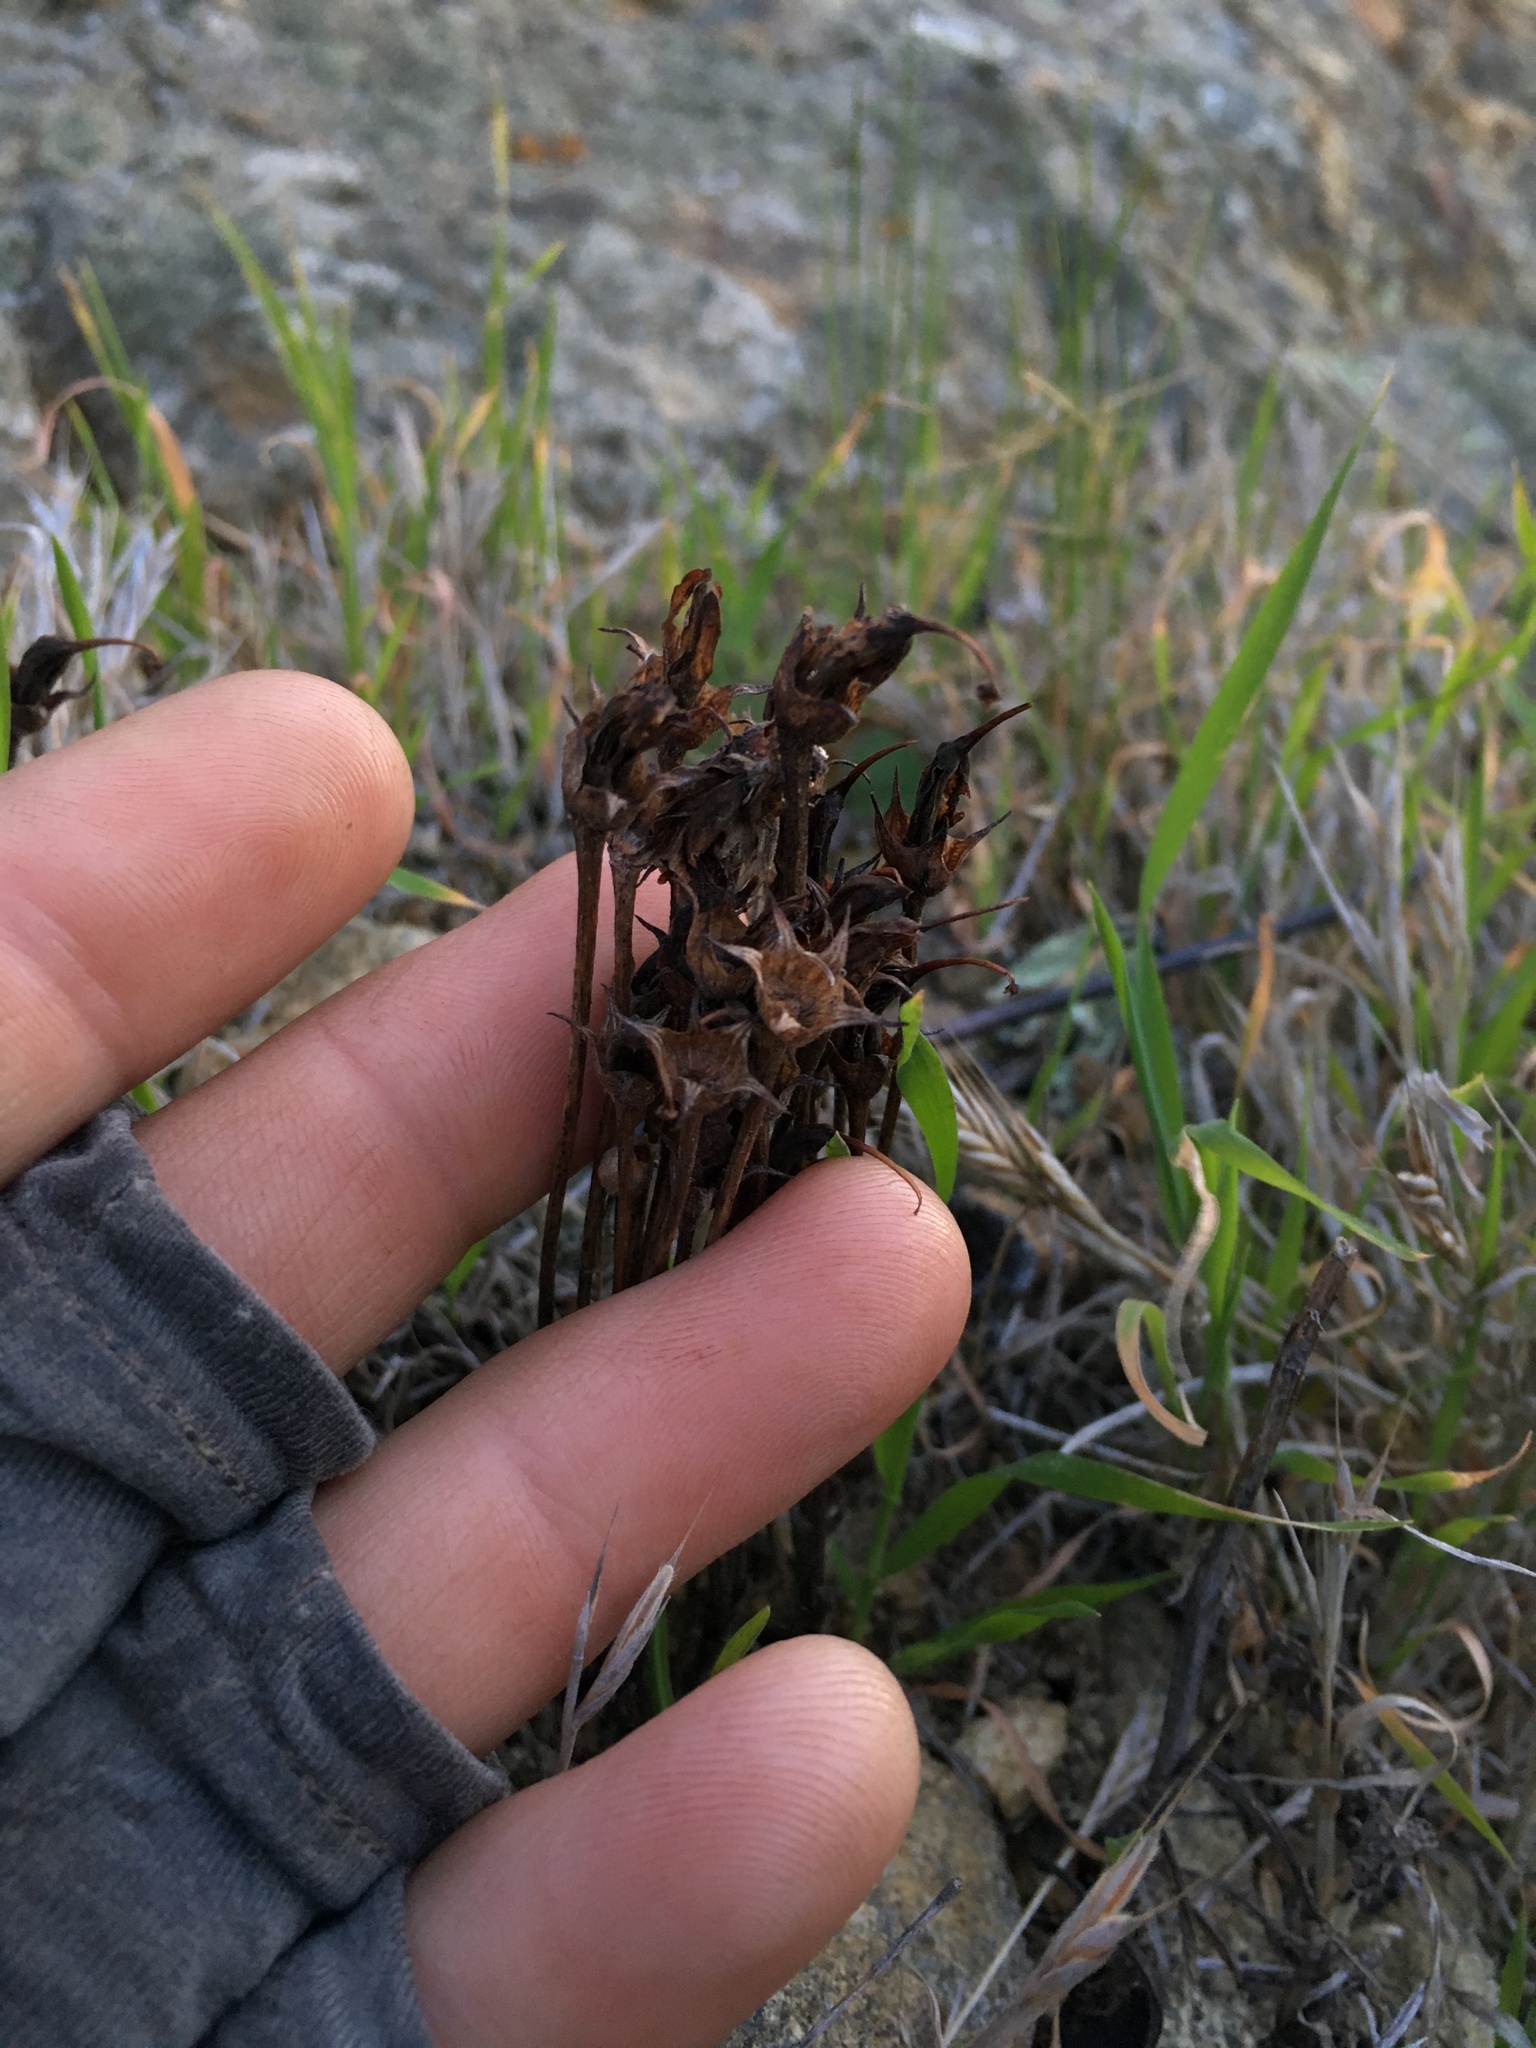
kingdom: Plantae
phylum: Tracheophyta
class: Magnoliopsida
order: Lamiales
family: Orobanchaceae
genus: Aphyllon
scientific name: Aphyllon franciscanum
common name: San francisco broomrape
